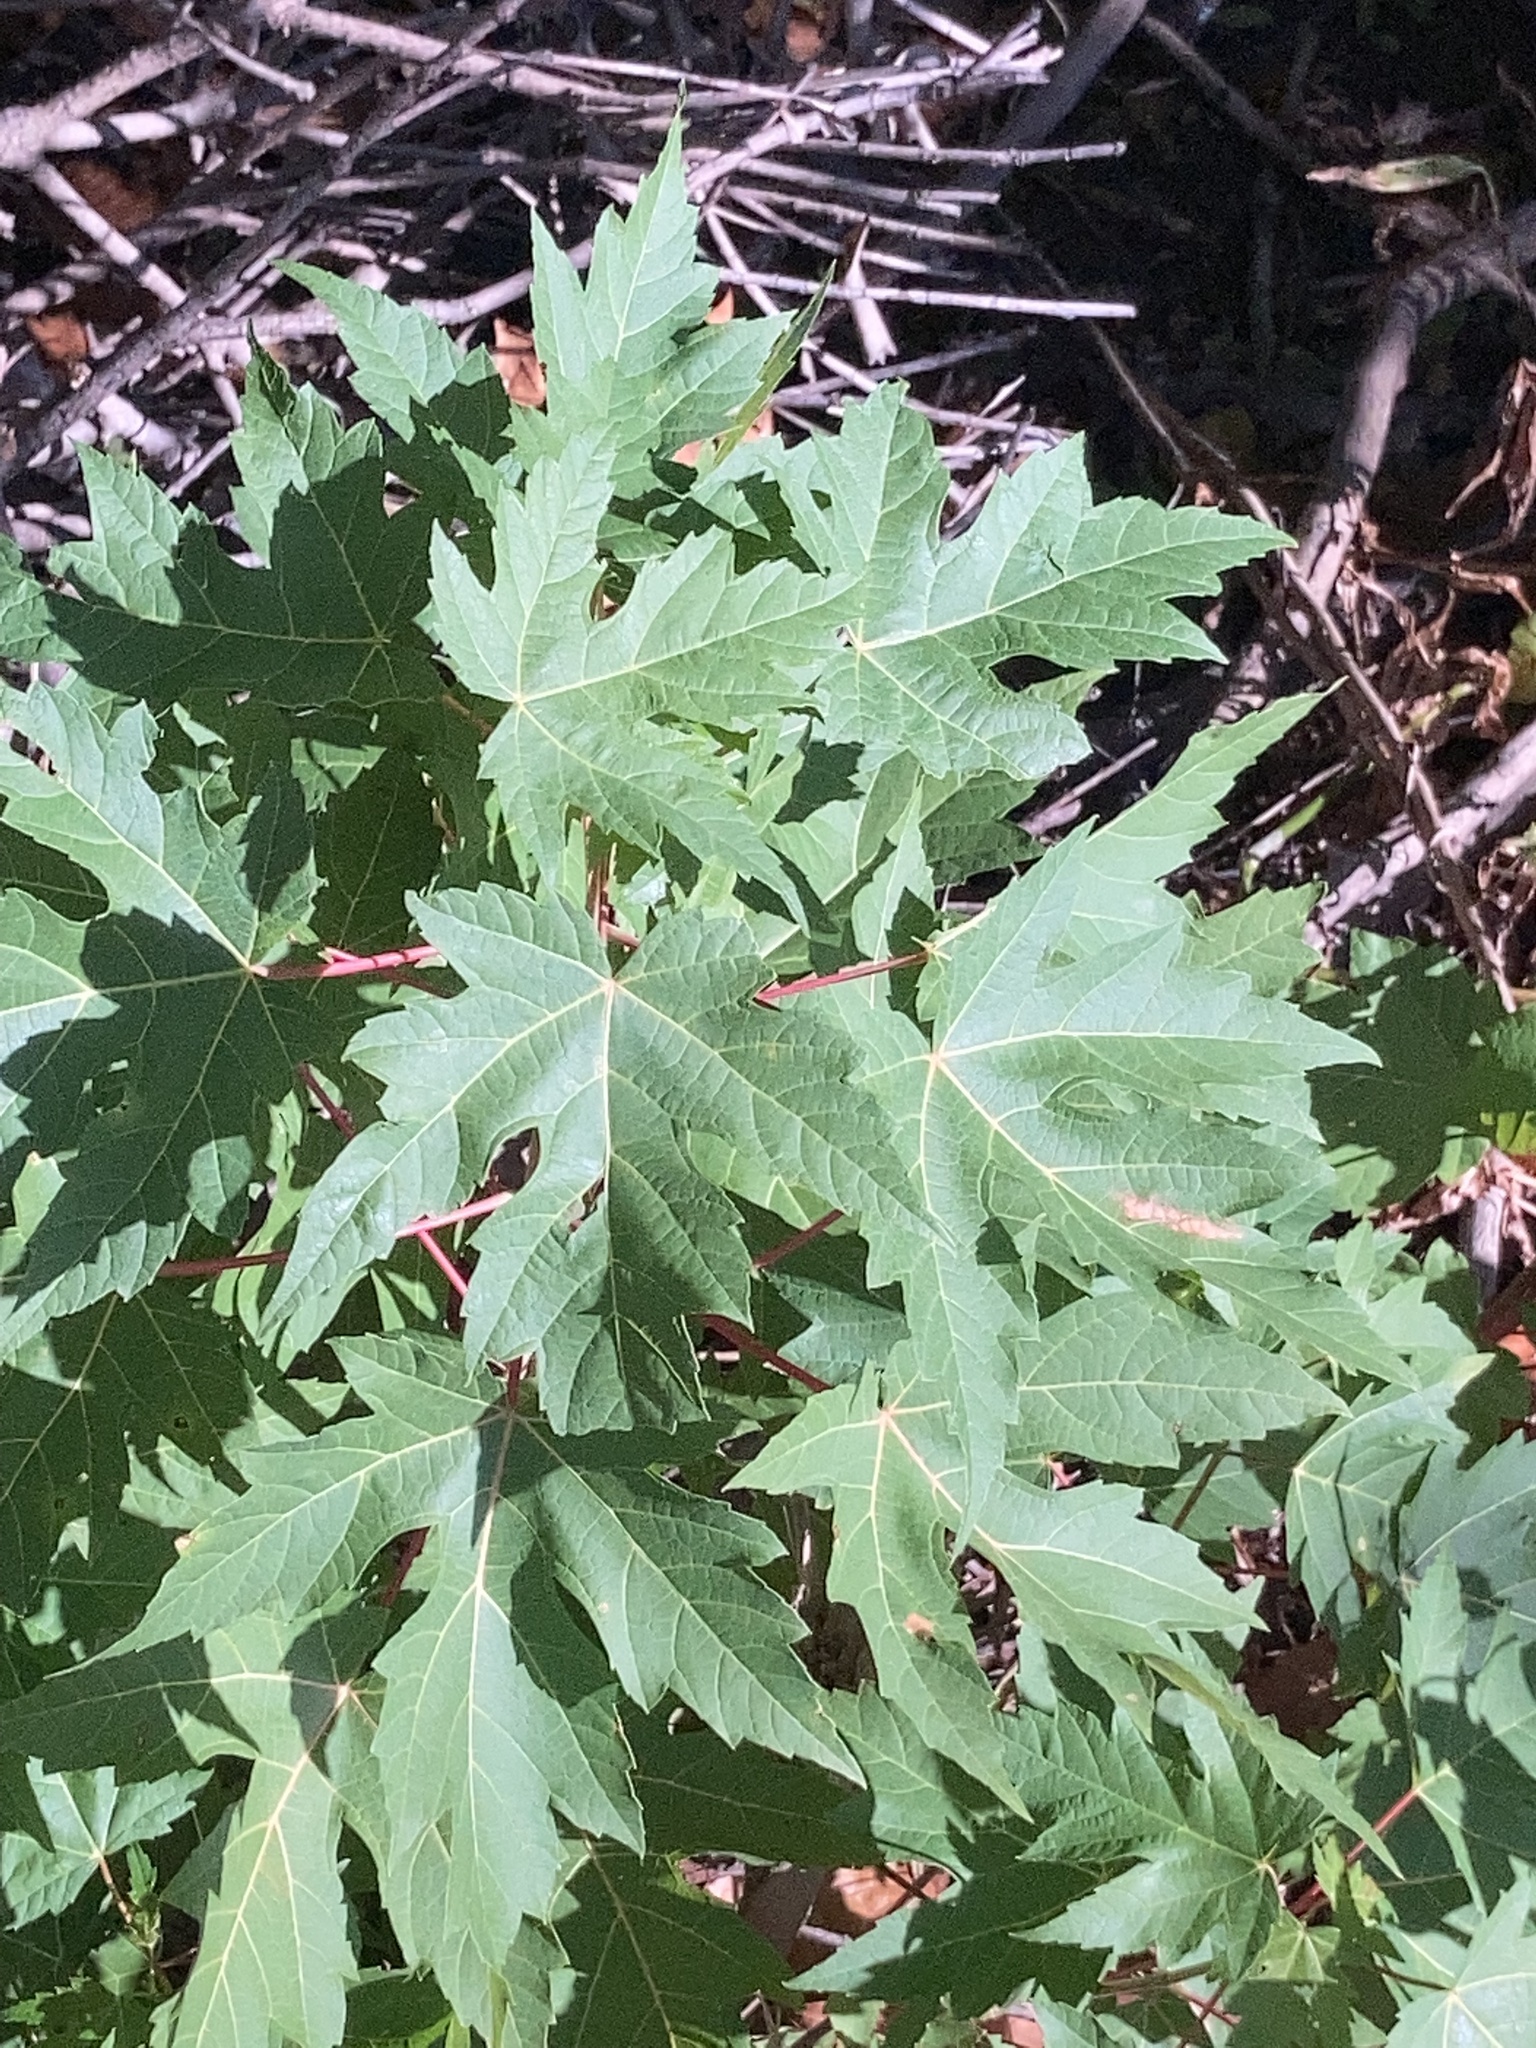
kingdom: Plantae
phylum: Tracheophyta
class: Magnoliopsida
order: Sapindales
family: Sapindaceae
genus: Acer
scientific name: Acer saccharinum
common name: Silver maple
